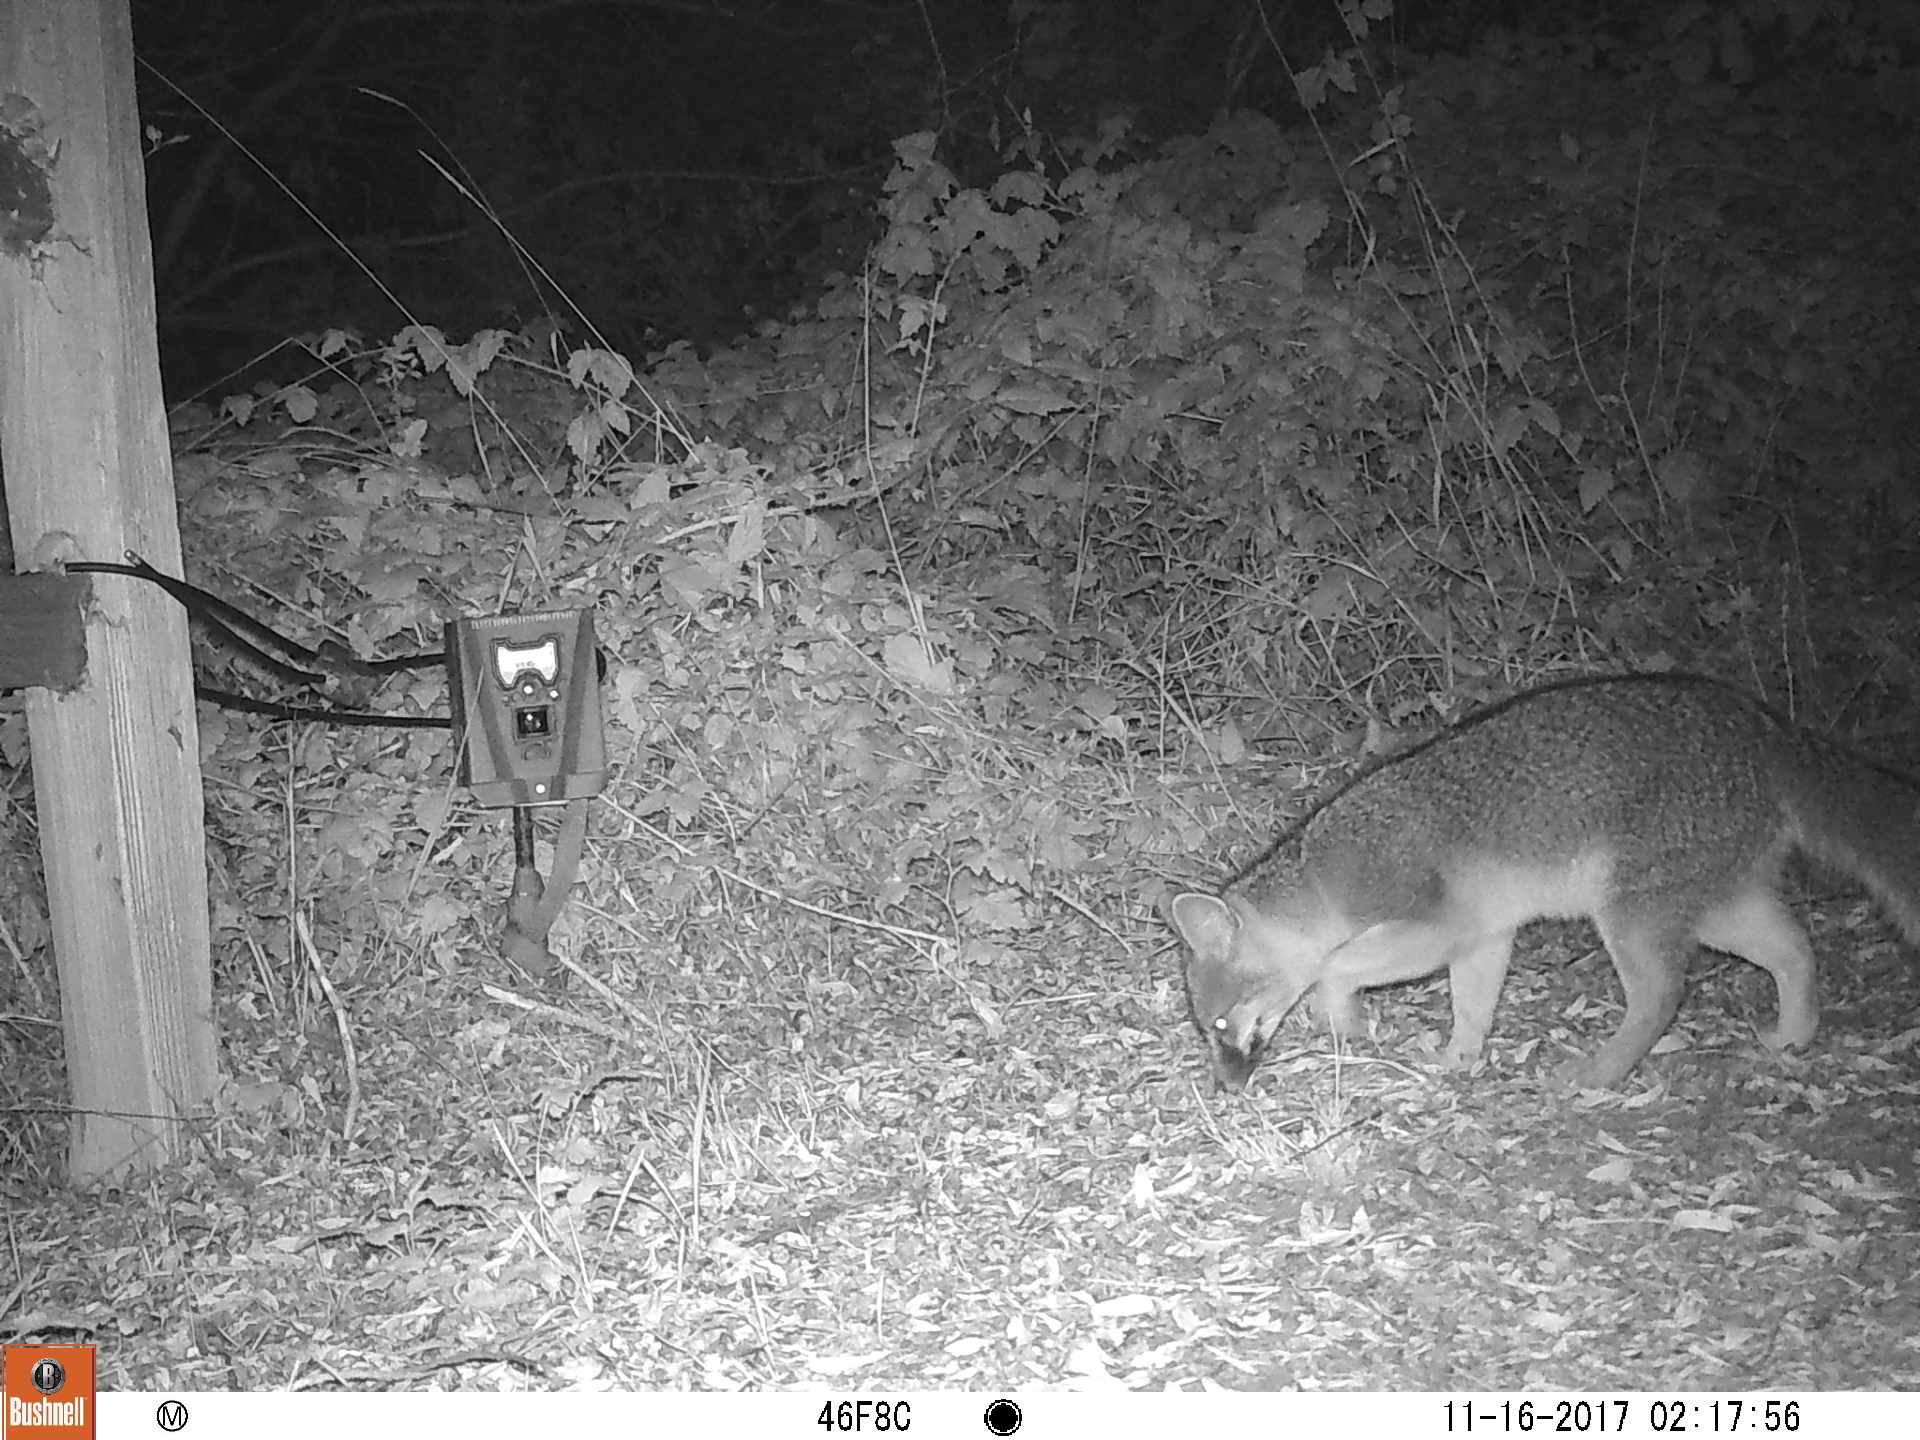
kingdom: Animalia
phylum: Chordata
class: Mammalia
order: Carnivora
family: Canidae
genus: Urocyon
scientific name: Urocyon cinereoargenteus
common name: Gray fox
